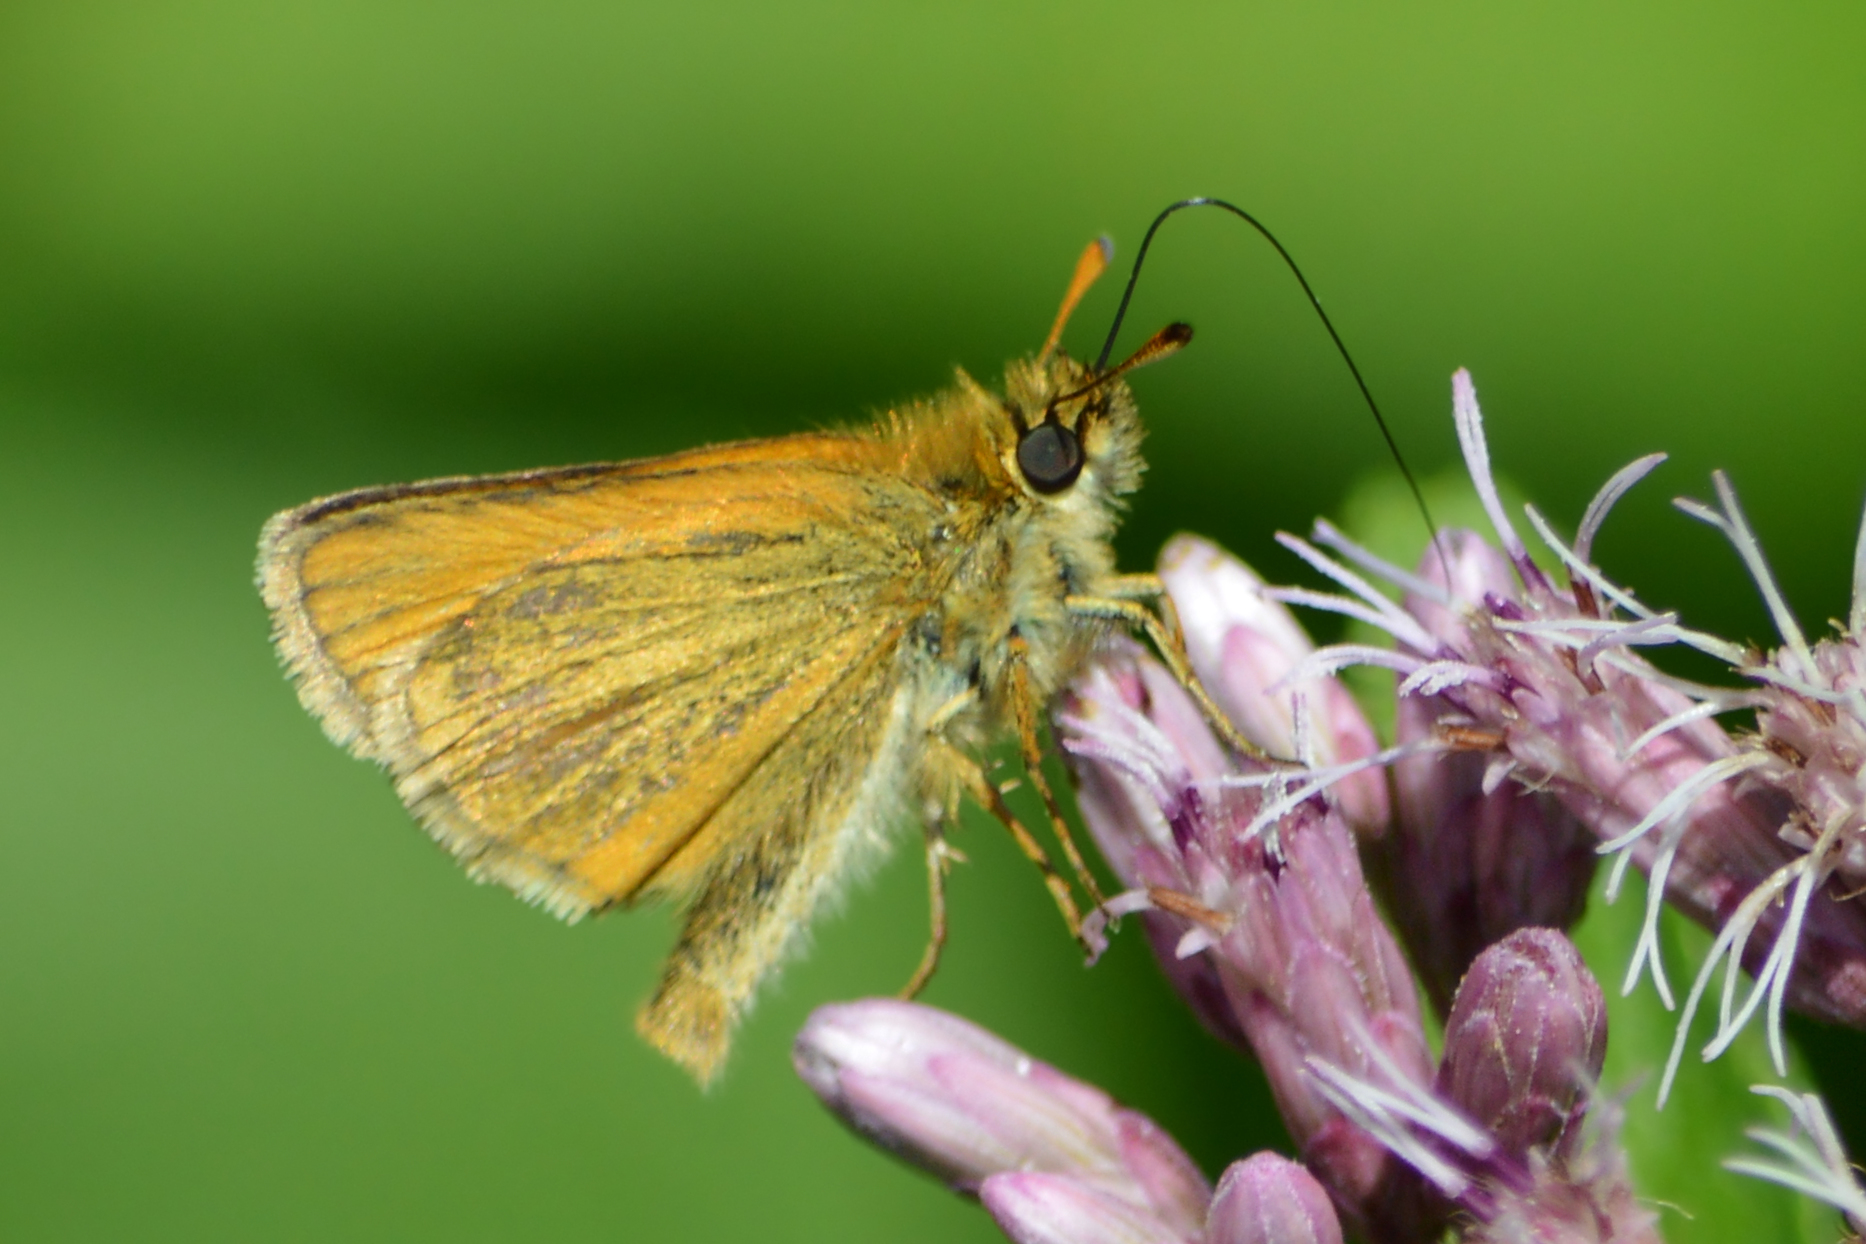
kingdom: Animalia
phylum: Arthropoda
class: Insecta
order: Lepidoptera
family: Hesperiidae
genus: Thymelicus
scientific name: Thymelicus lineola
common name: Essex skipper
